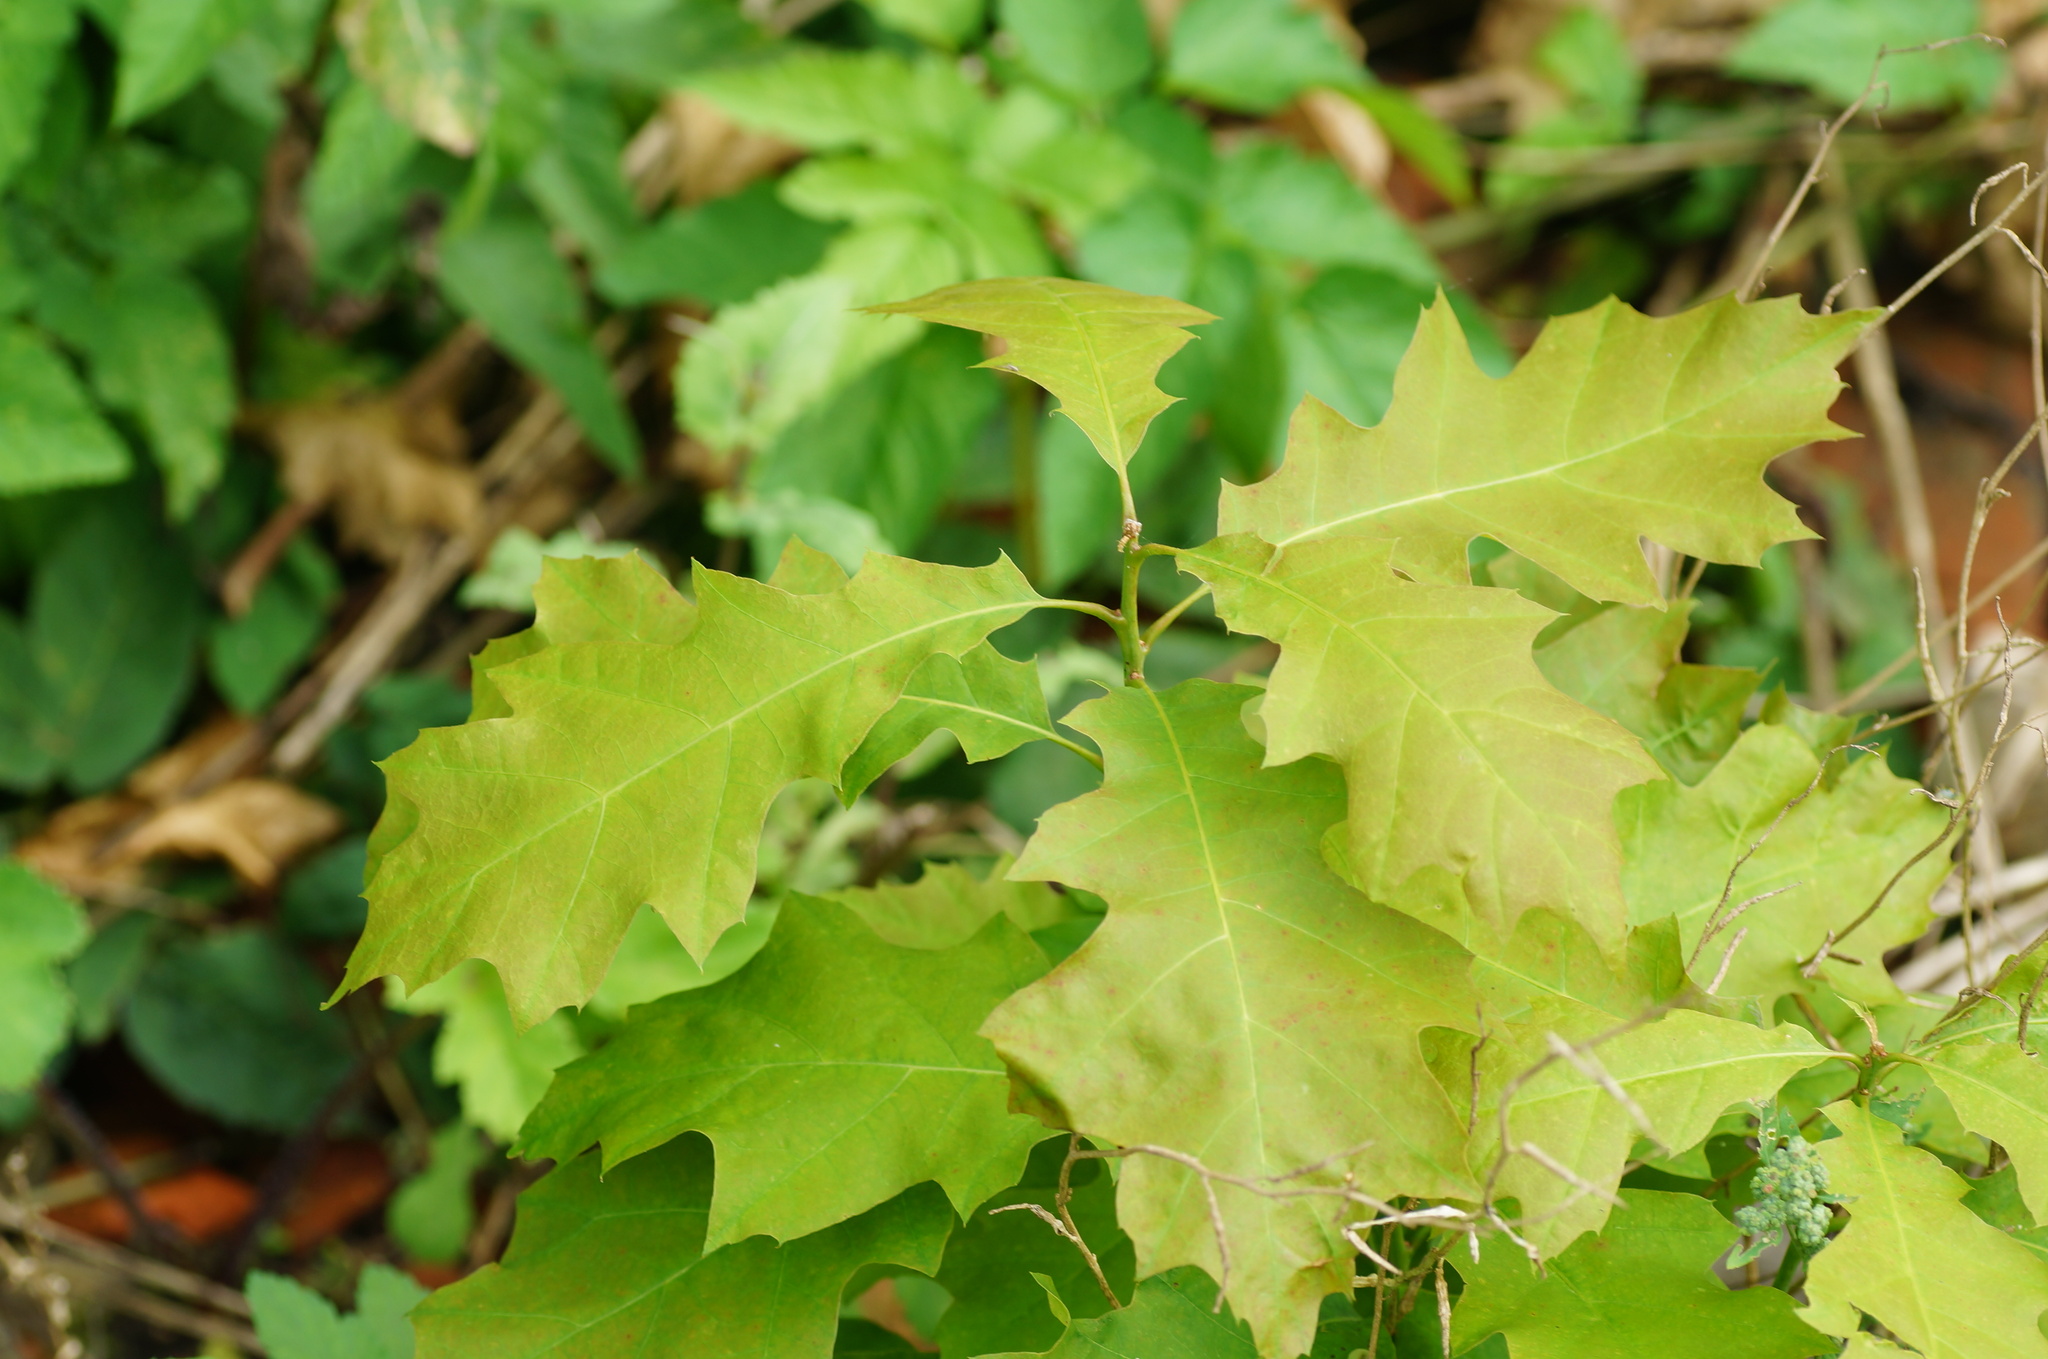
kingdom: Plantae
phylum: Tracheophyta
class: Magnoliopsida
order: Fagales
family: Fagaceae
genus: Quercus
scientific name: Quercus rubra
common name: Red oak
